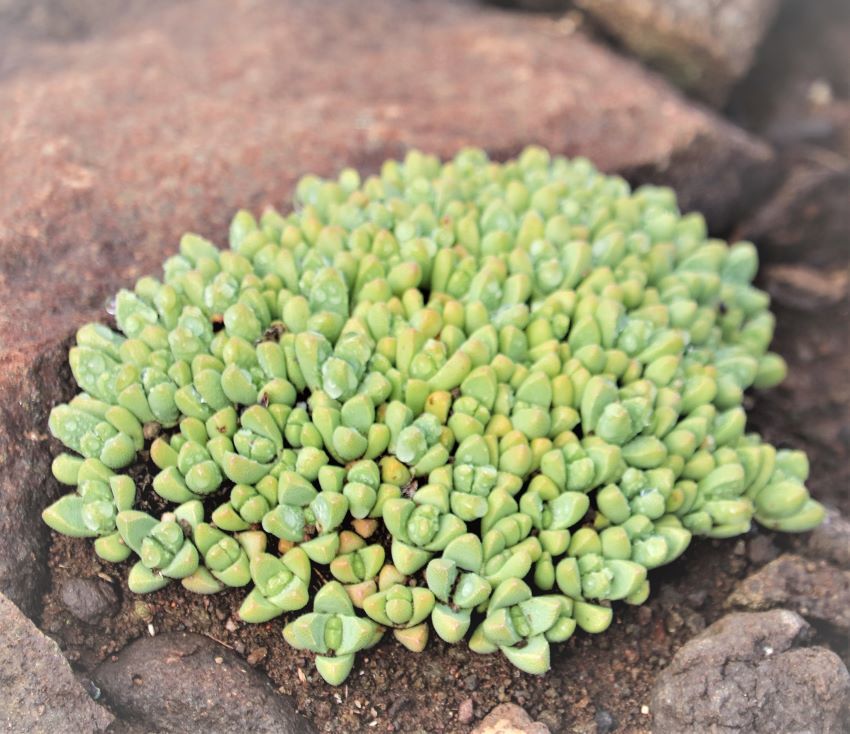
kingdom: Plantae
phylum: Tracheophyta
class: Magnoliopsida
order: Caryophyllales
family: Aizoaceae
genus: Stomatium
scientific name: Stomatium gerstneri
